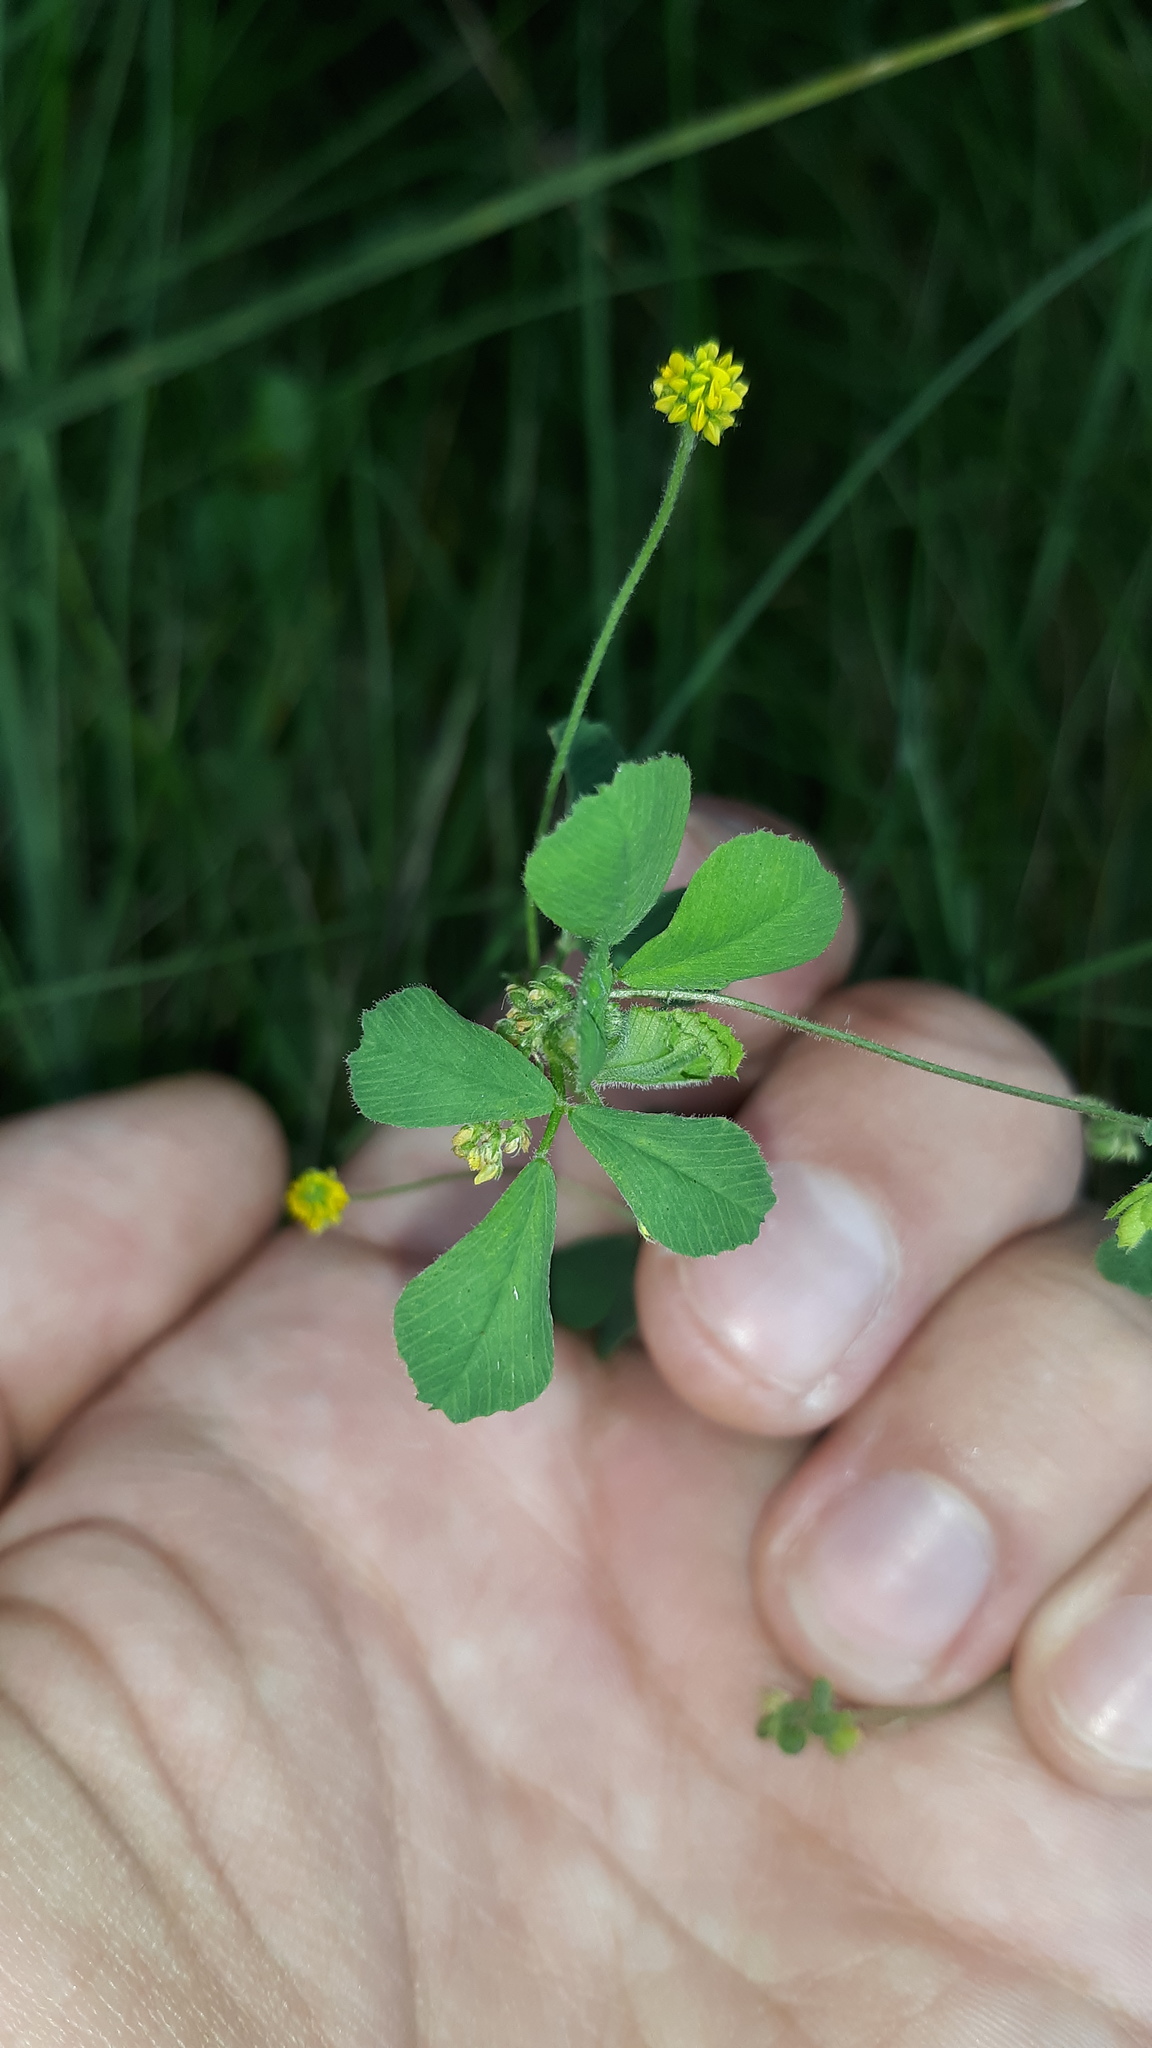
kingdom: Plantae
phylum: Tracheophyta
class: Magnoliopsida
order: Fabales
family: Fabaceae
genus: Medicago
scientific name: Medicago lupulina
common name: Black medick
